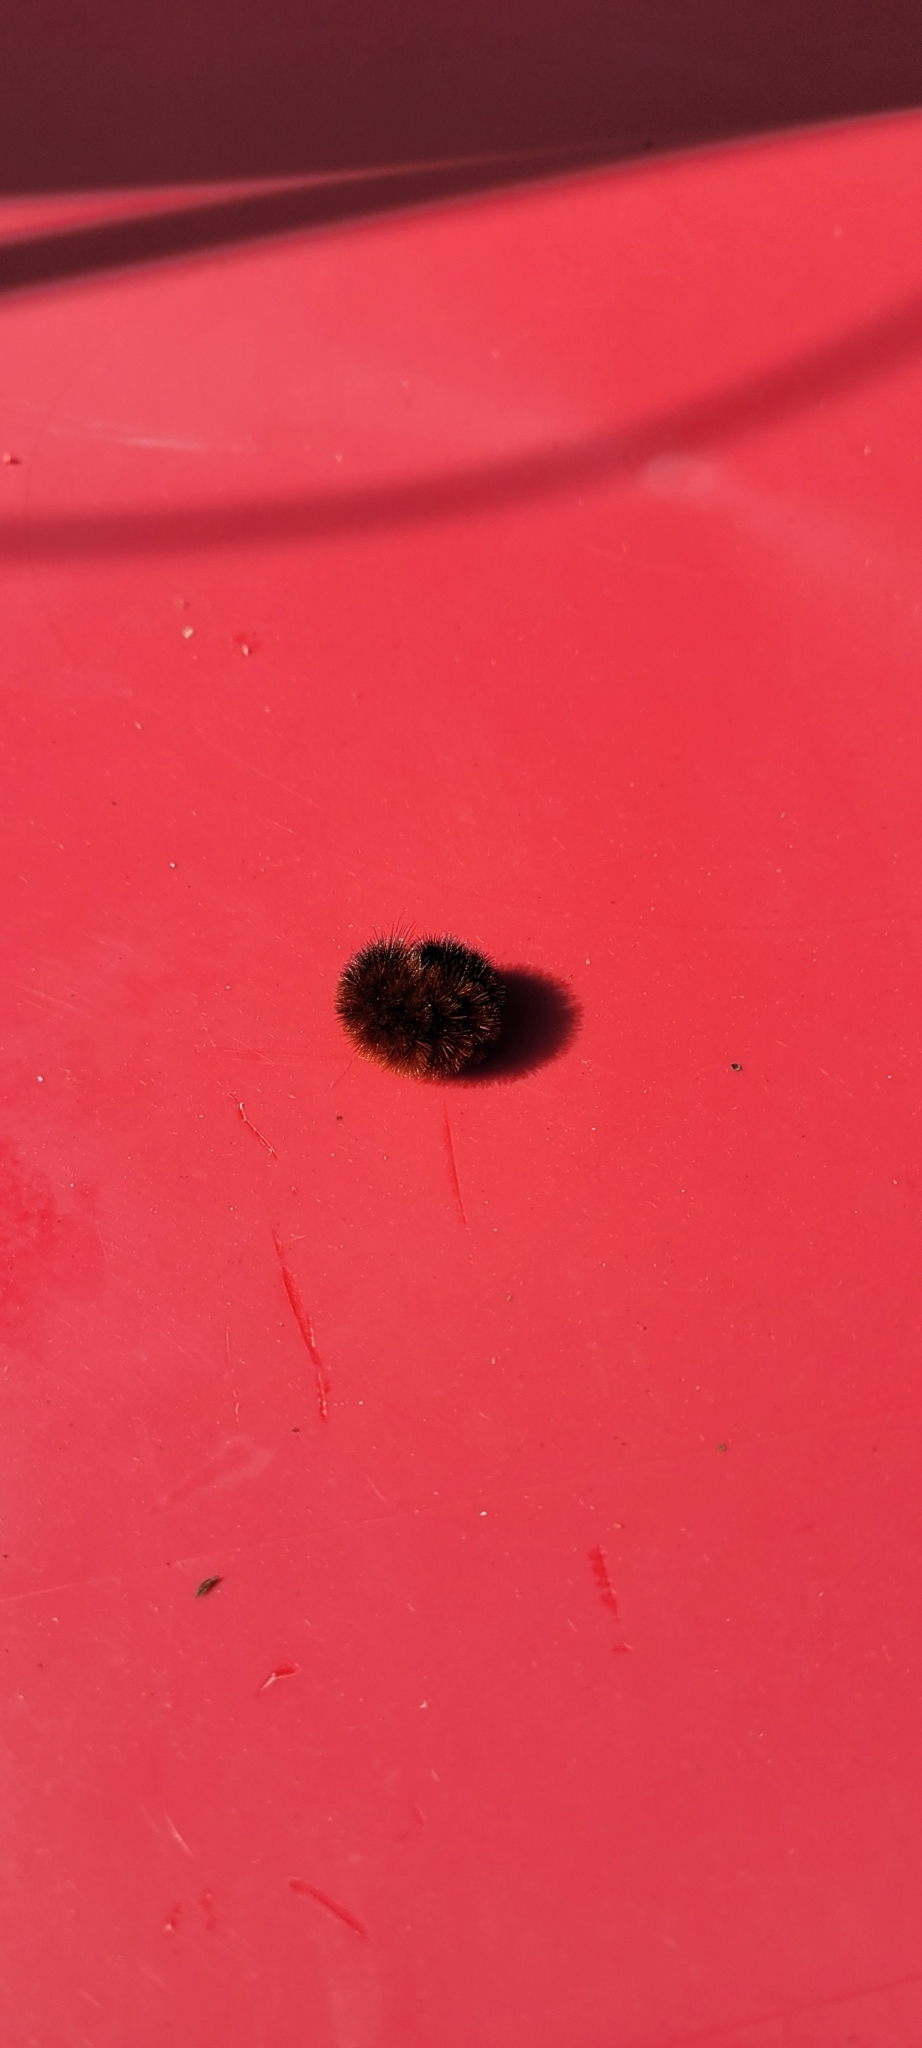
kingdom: Animalia
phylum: Arthropoda
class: Insecta
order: Lepidoptera
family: Erebidae
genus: Pyrrharctia
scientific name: Pyrrharctia isabella
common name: Isabella tiger moth
